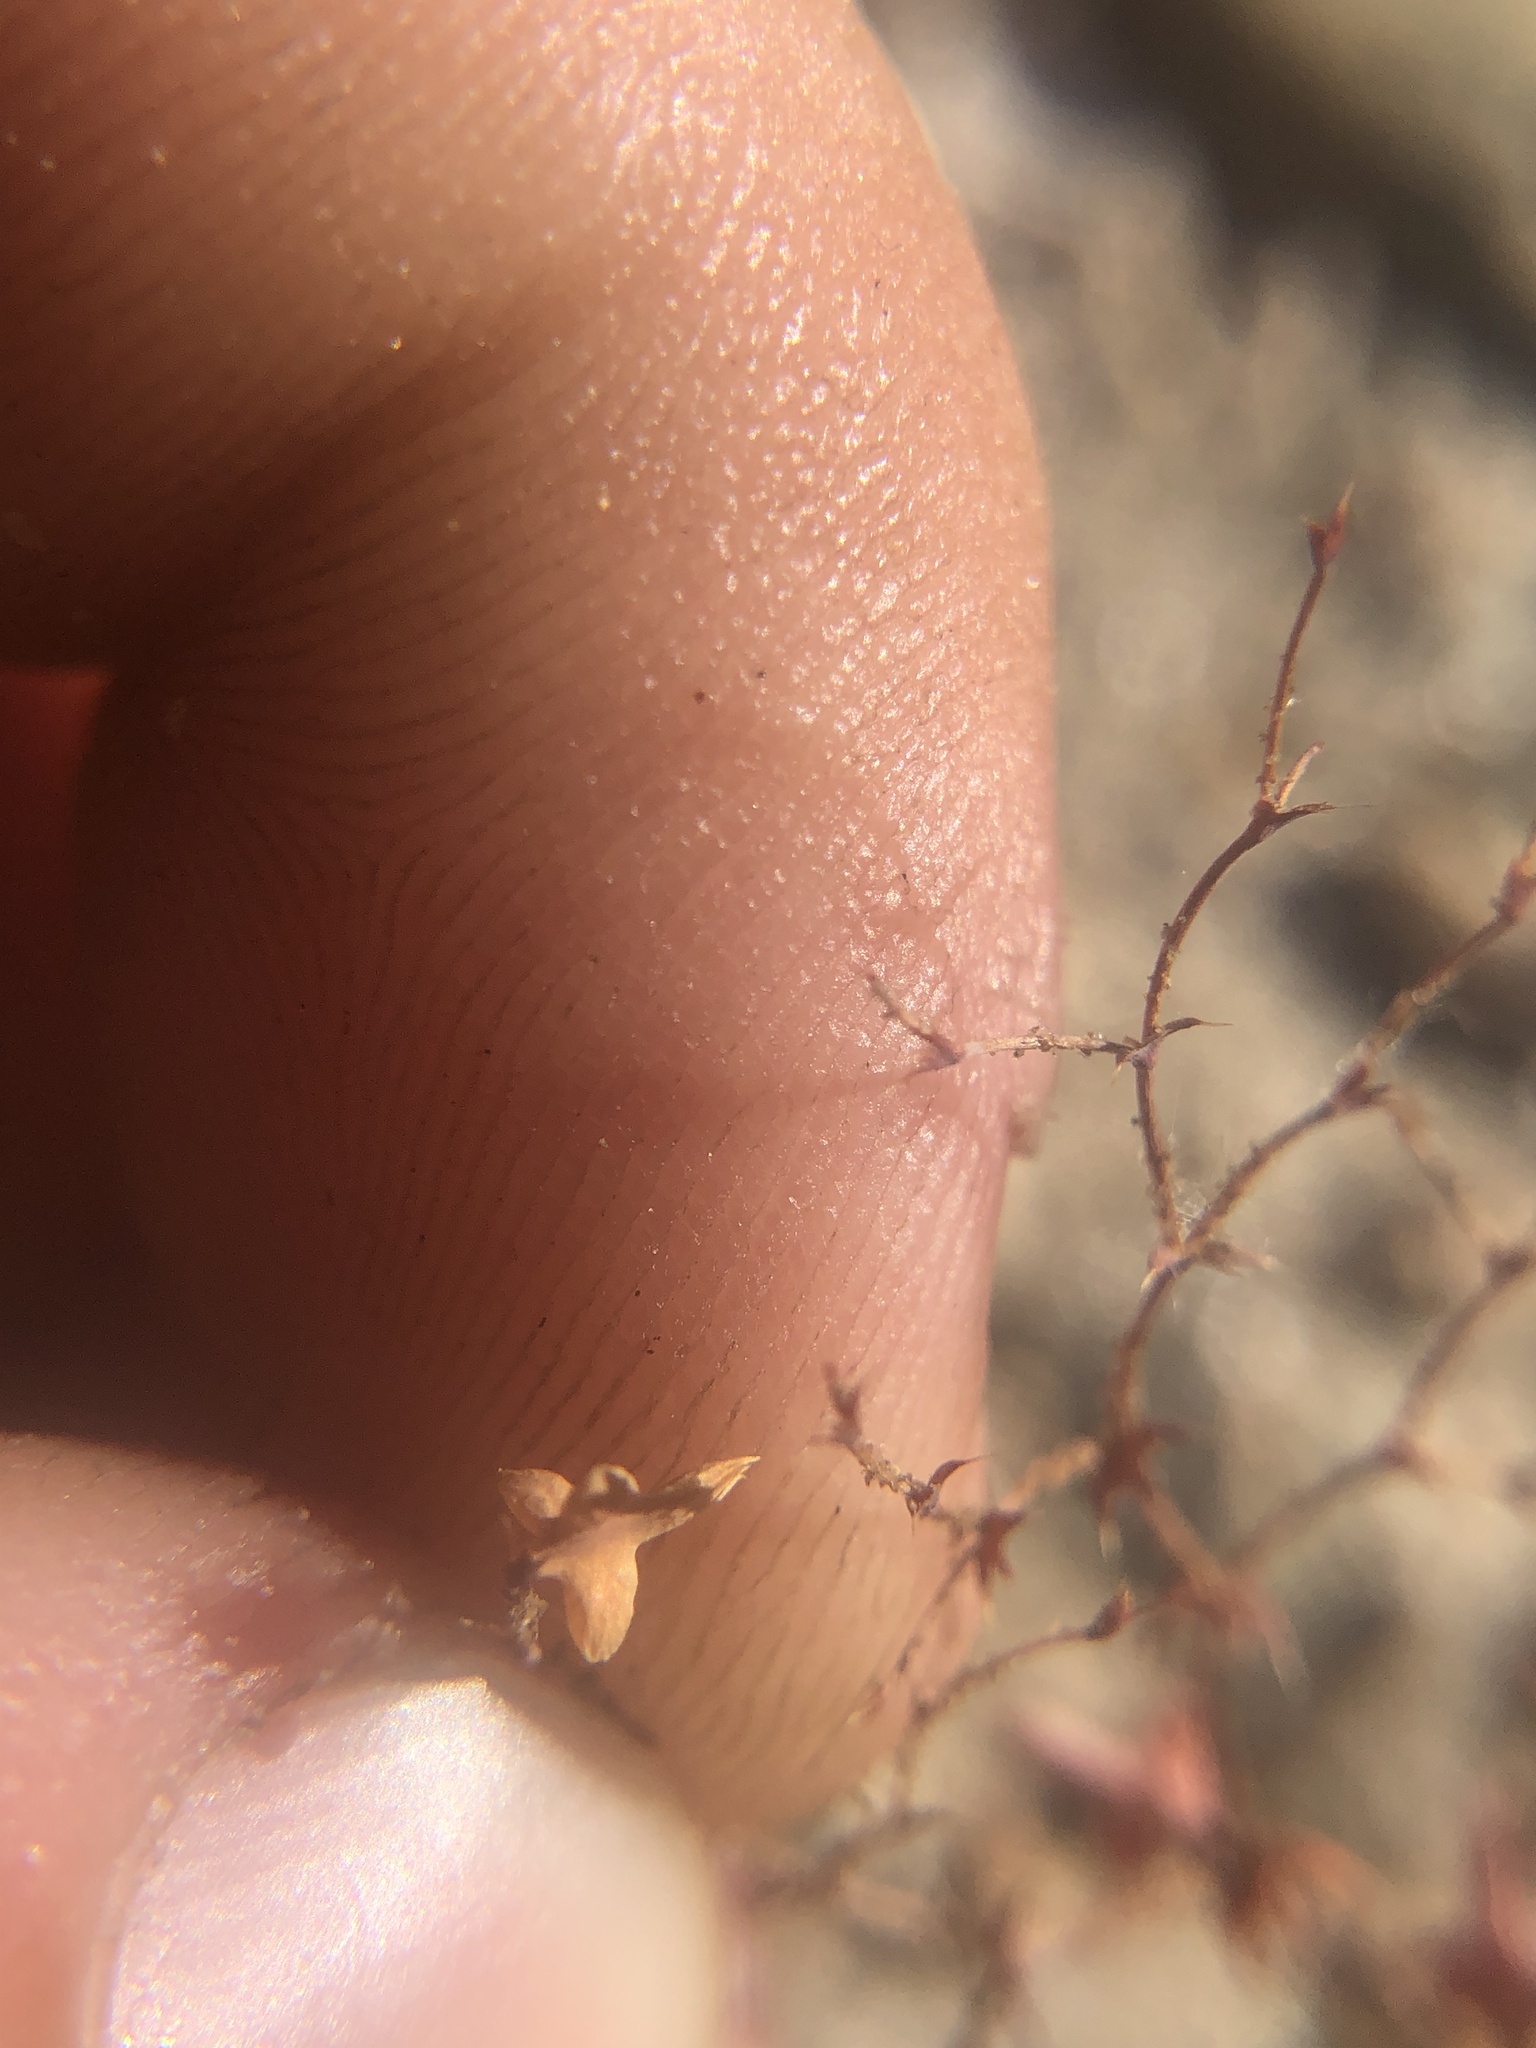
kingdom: Plantae
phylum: Tracheophyta
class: Magnoliopsida
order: Caryophyllales
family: Polygonaceae
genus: Centrostegia
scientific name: Centrostegia thurberi
